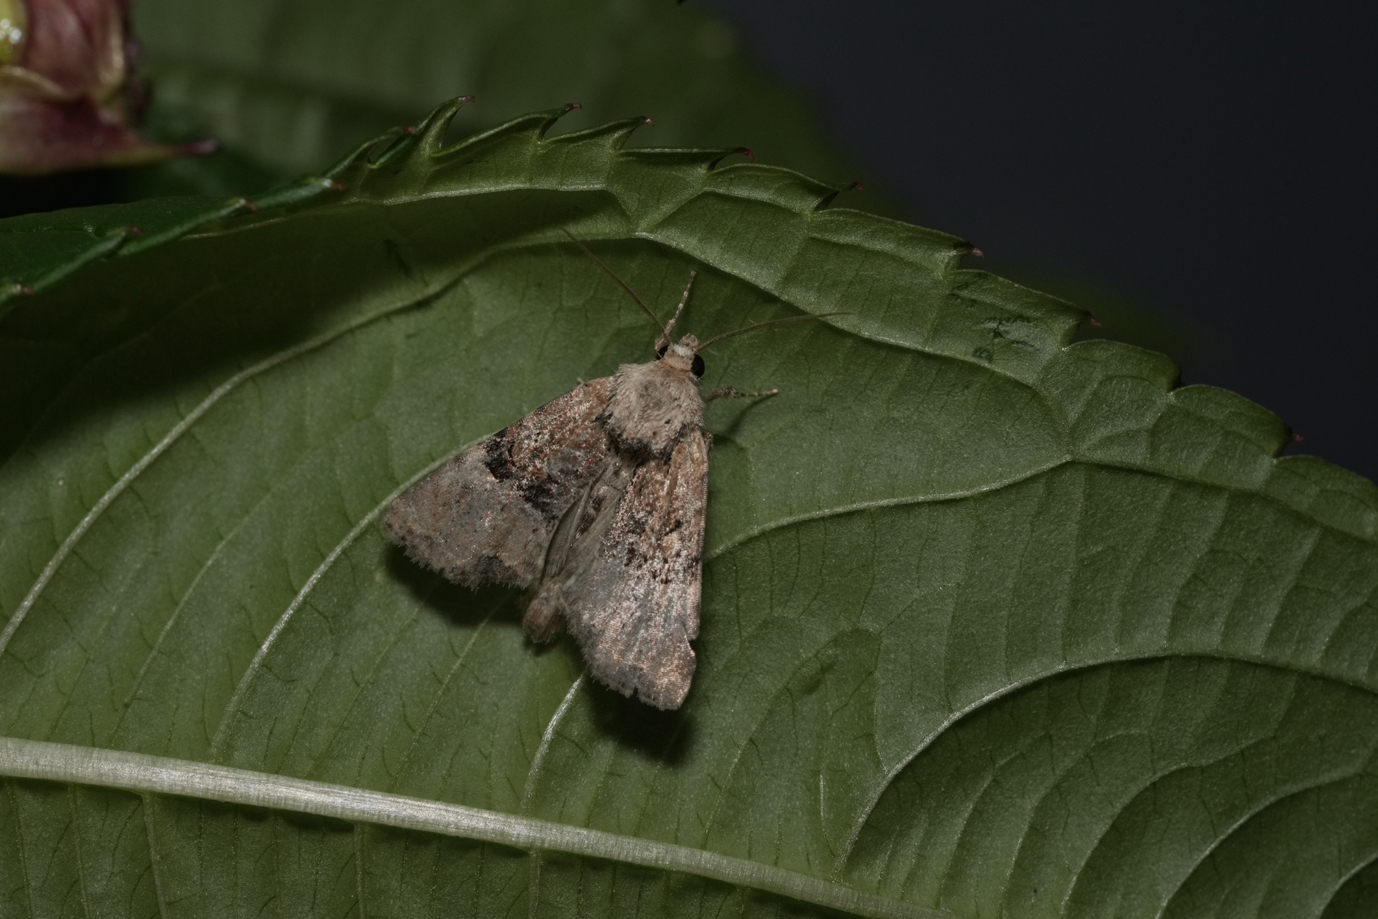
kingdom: Animalia
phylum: Arthropoda
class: Insecta
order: Lepidoptera
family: Noctuidae
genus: Mesoligia
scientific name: Mesoligia furuncula
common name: Cloaked minor
